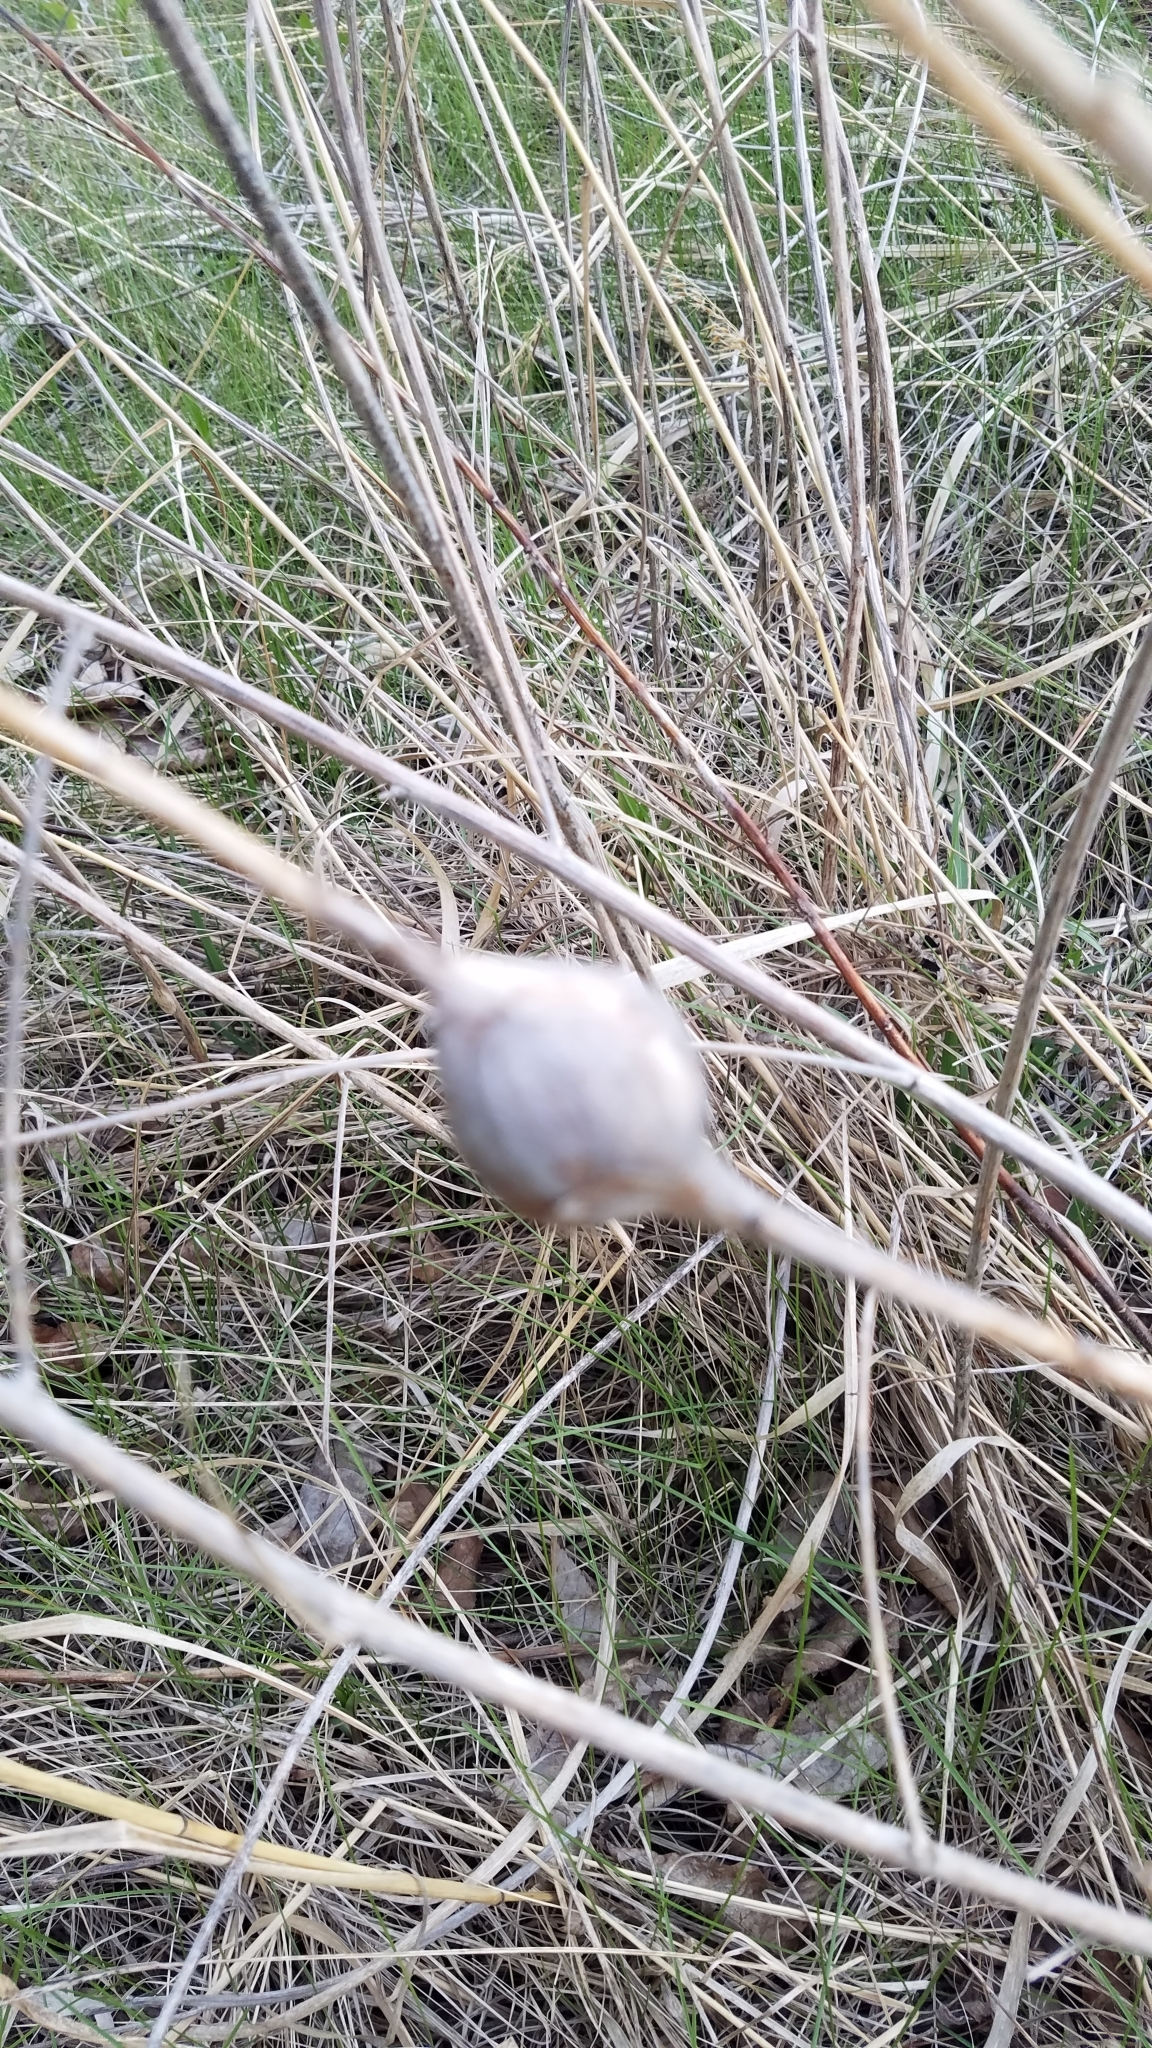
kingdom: Animalia
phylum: Arthropoda
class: Insecta
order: Diptera
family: Tephritidae
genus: Eurosta
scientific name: Eurosta solidaginis
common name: Goldenrod gall fly
